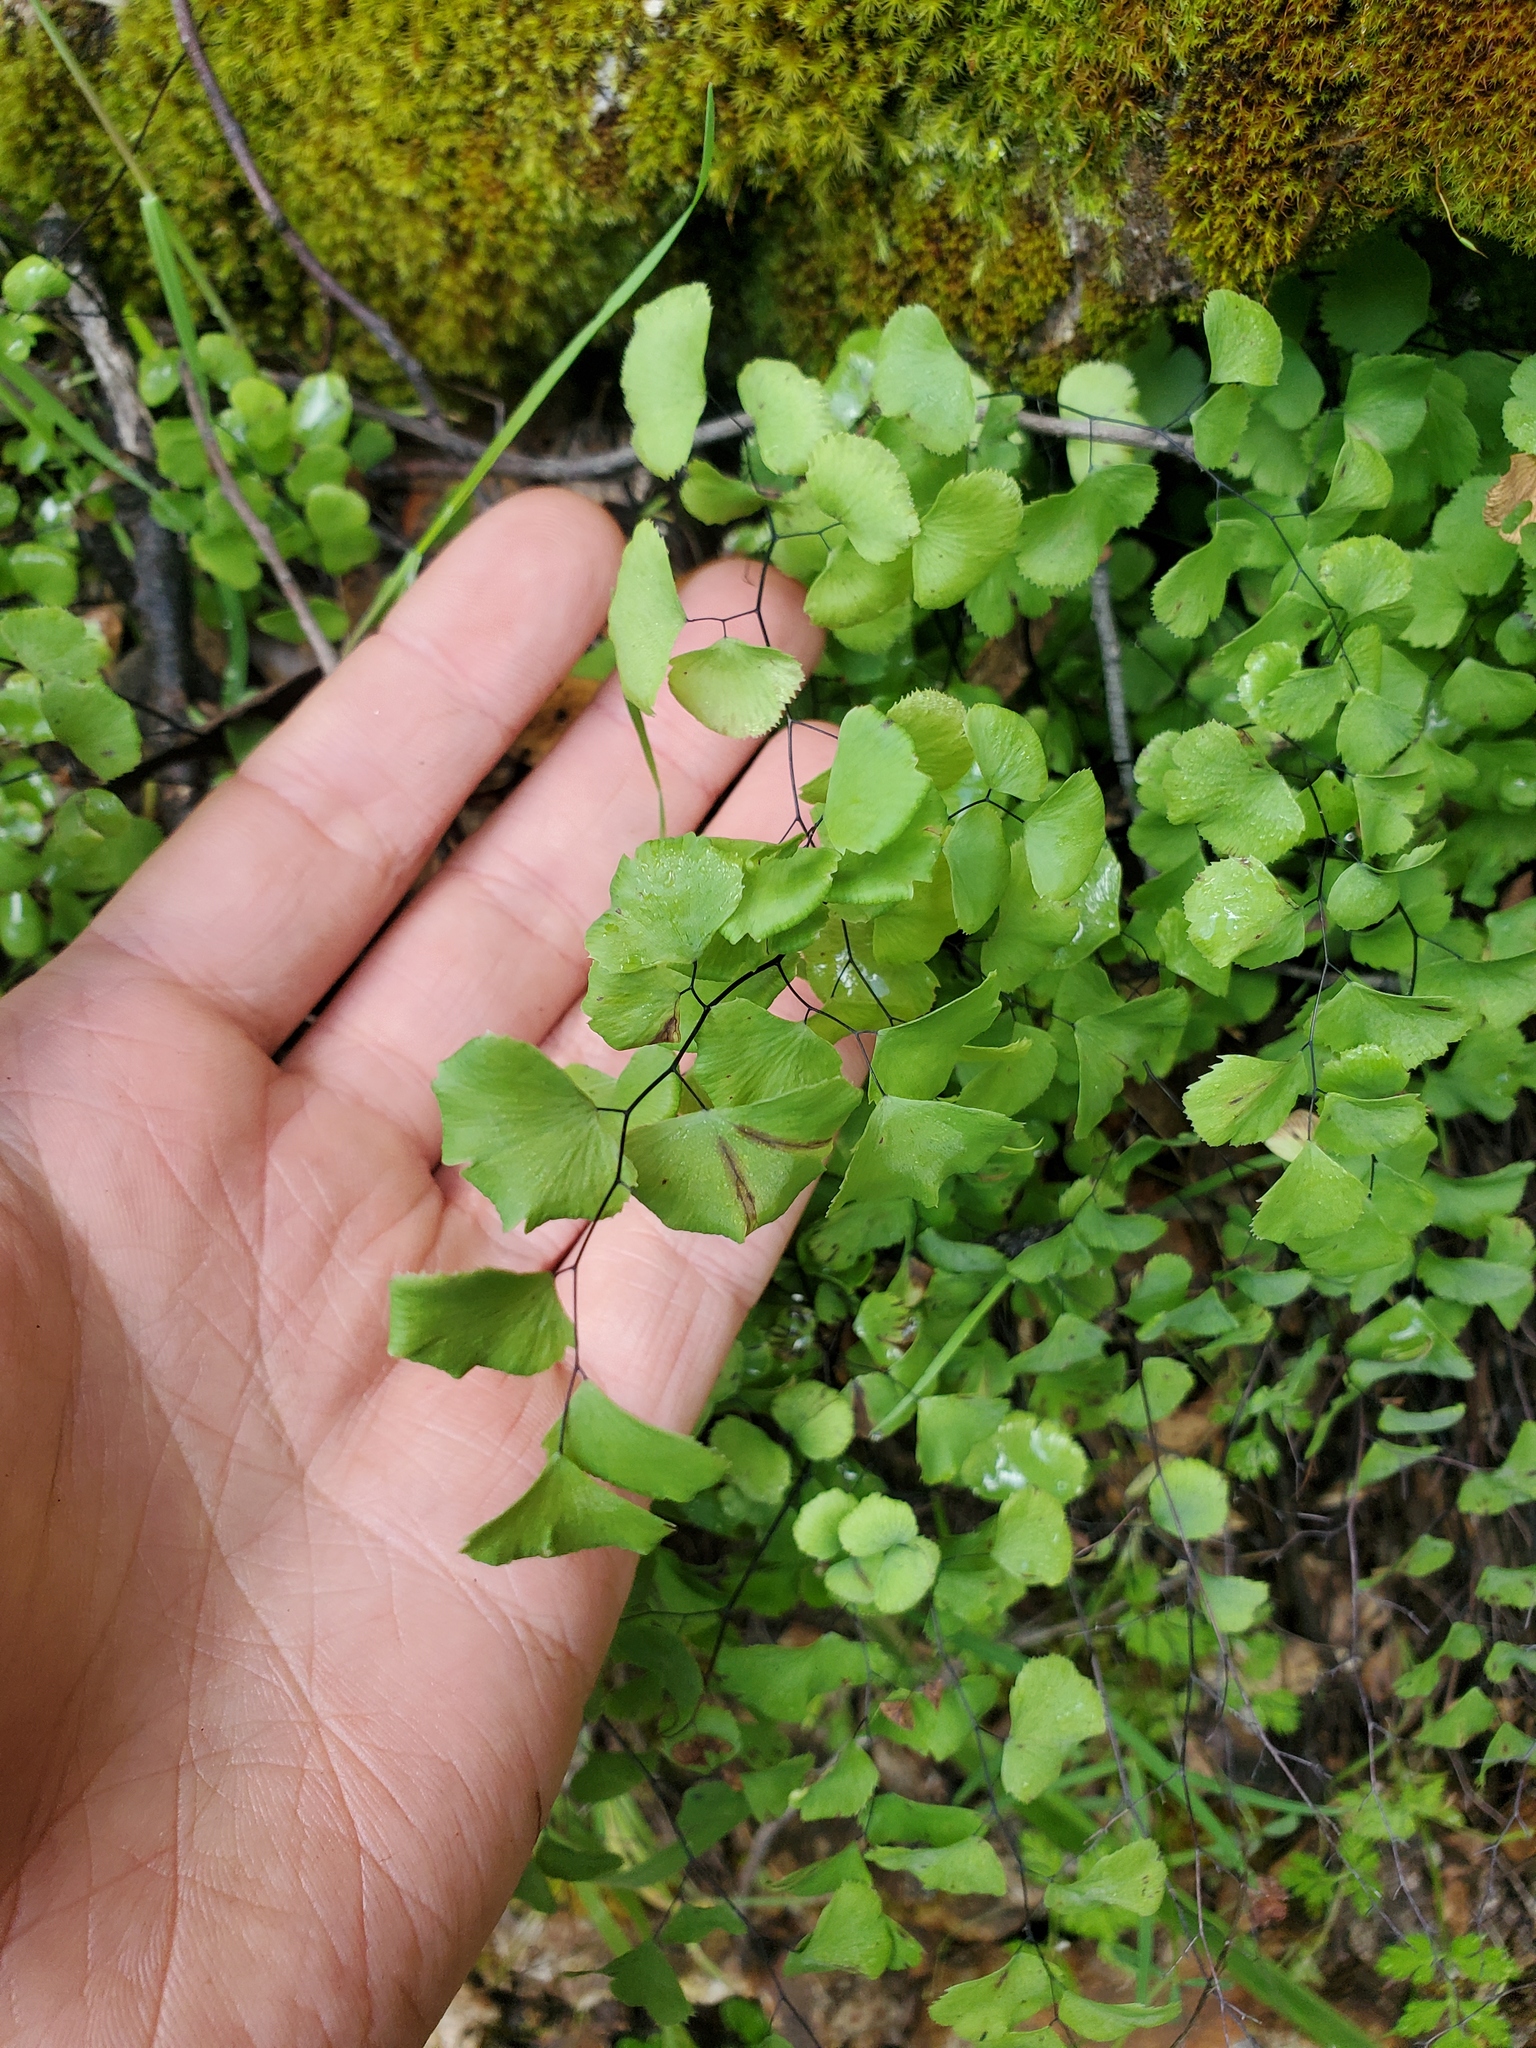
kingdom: Plantae
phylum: Tracheophyta
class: Polypodiopsida
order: Polypodiales
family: Pteridaceae
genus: Adiantum
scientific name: Adiantum jordanii
